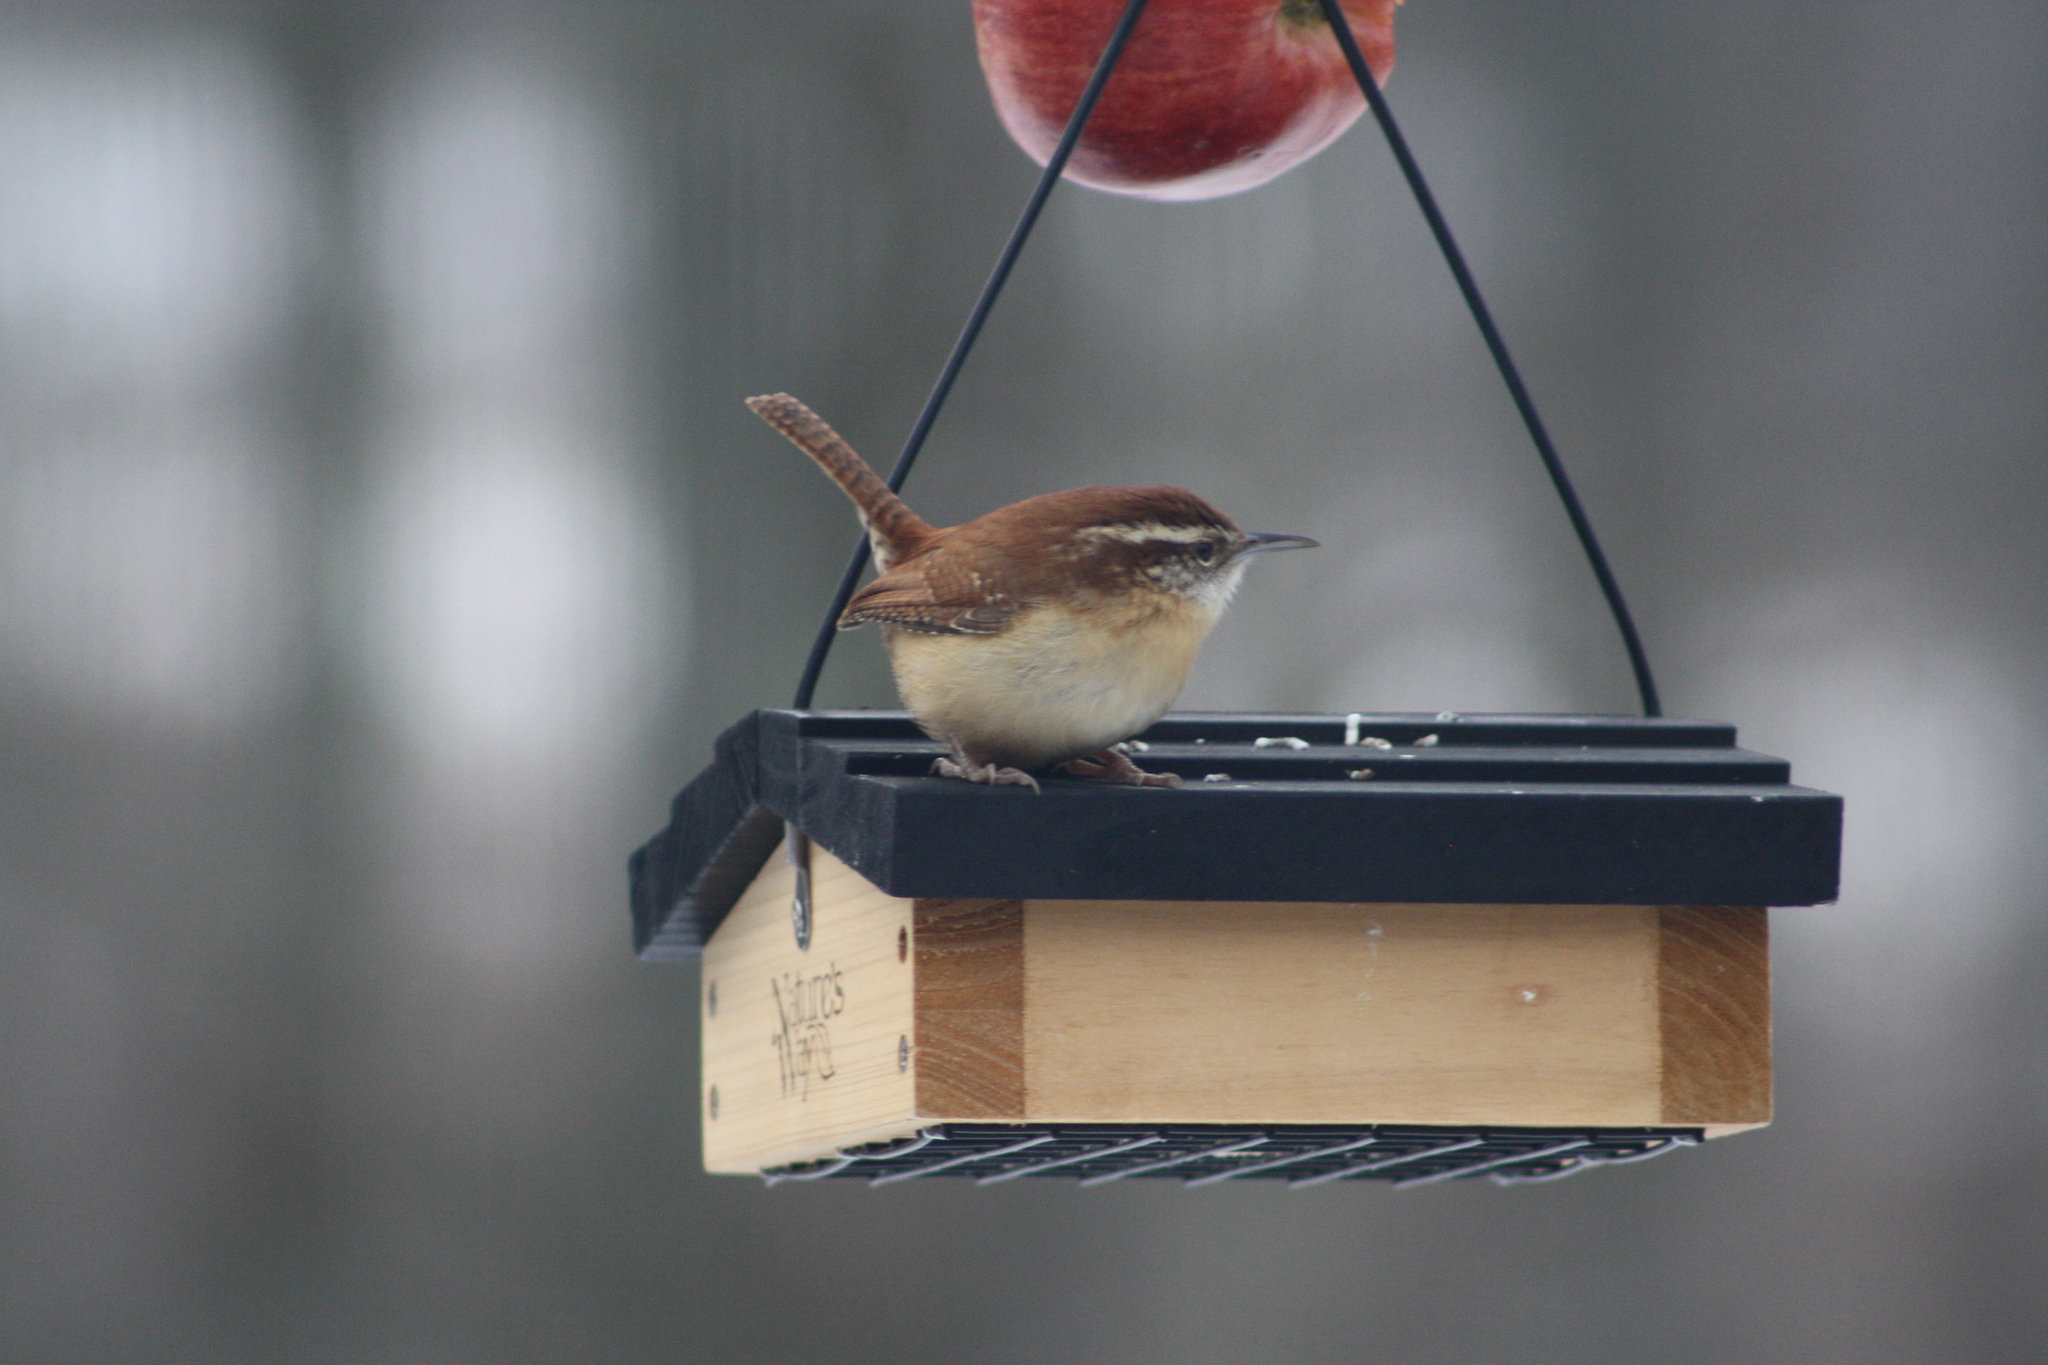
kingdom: Animalia
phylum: Chordata
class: Aves
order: Passeriformes
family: Troglodytidae
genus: Thryothorus
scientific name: Thryothorus ludovicianus
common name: Carolina wren
